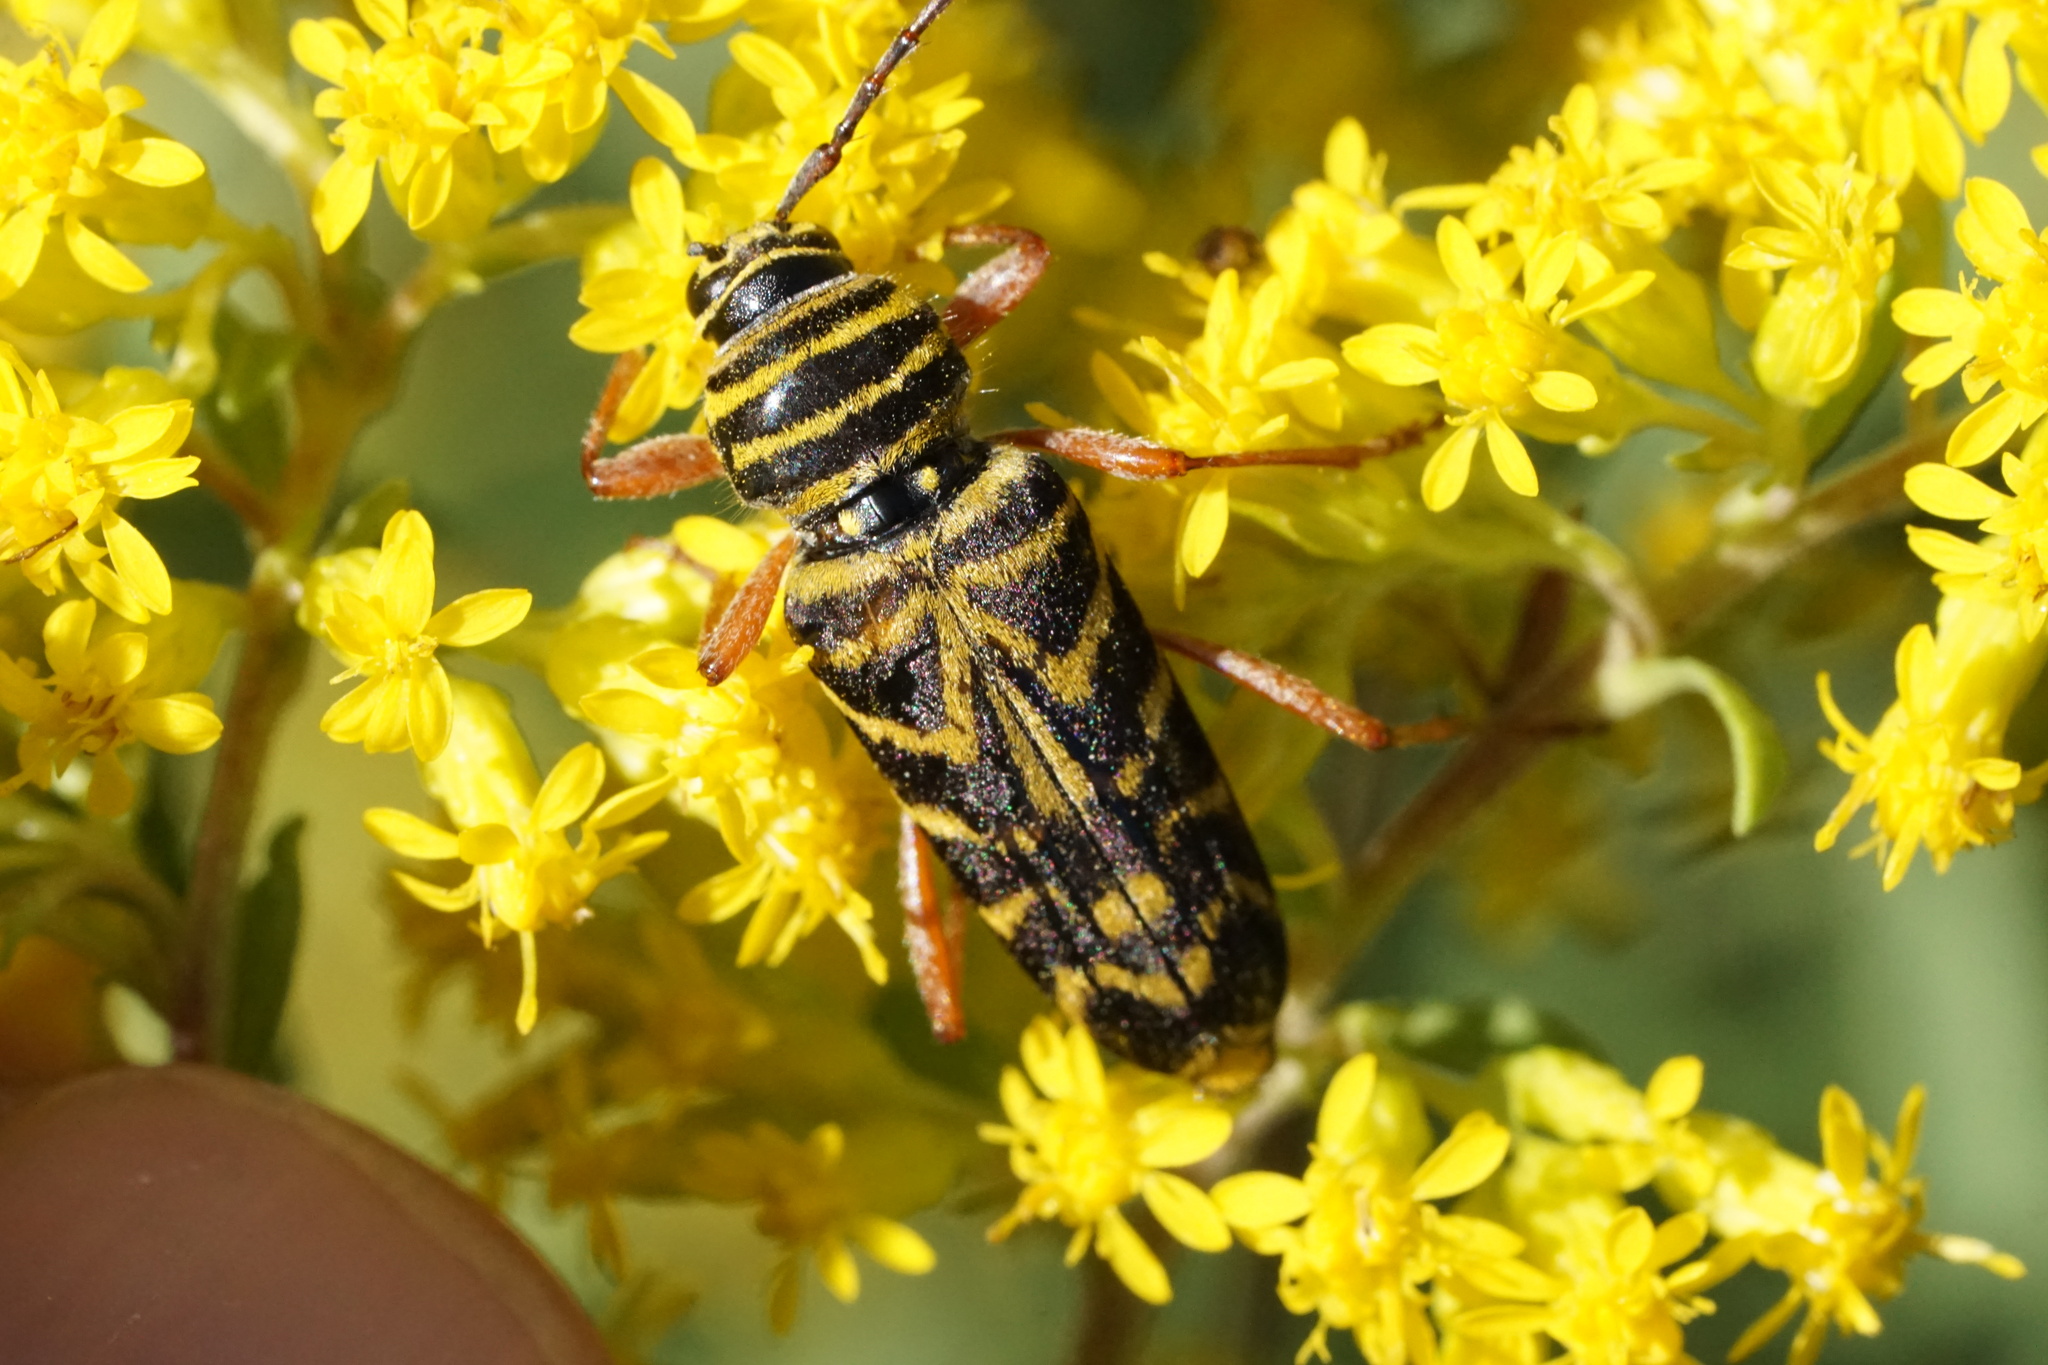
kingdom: Animalia
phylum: Arthropoda
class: Insecta
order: Coleoptera
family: Cerambycidae
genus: Megacyllene
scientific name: Megacyllene robiniae
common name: Locust borer
